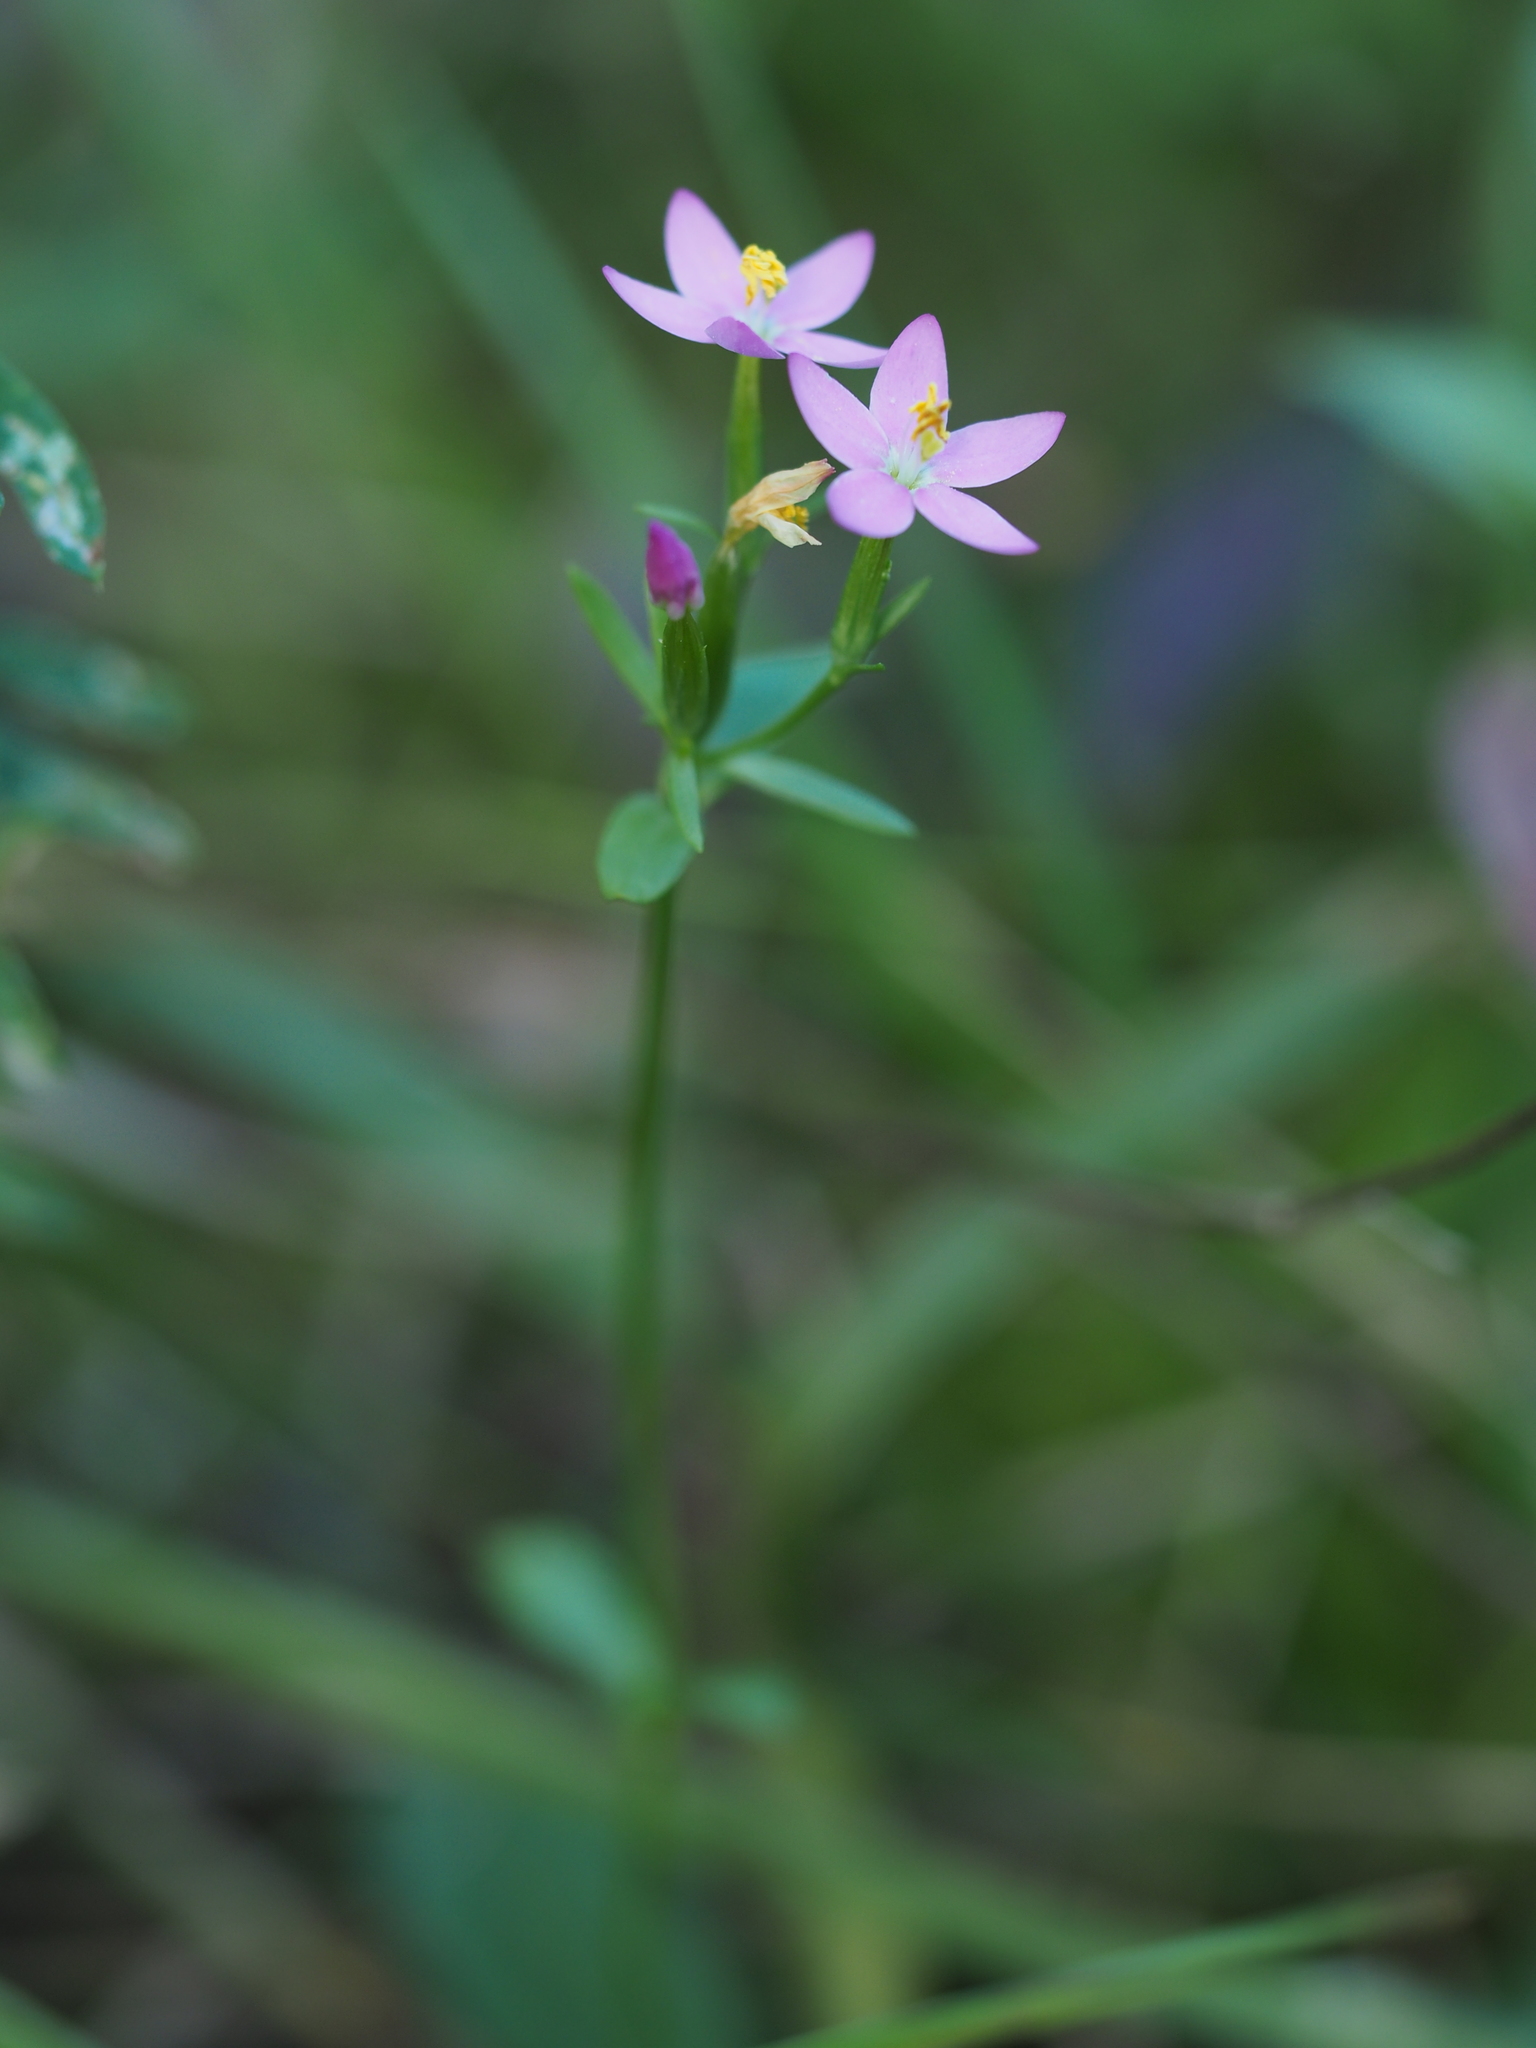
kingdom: Plantae
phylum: Tracheophyta
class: Magnoliopsida
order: Gentianales
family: Gentianaceae
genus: Centaurium
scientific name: Centaurium erythraea
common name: Common centaury
